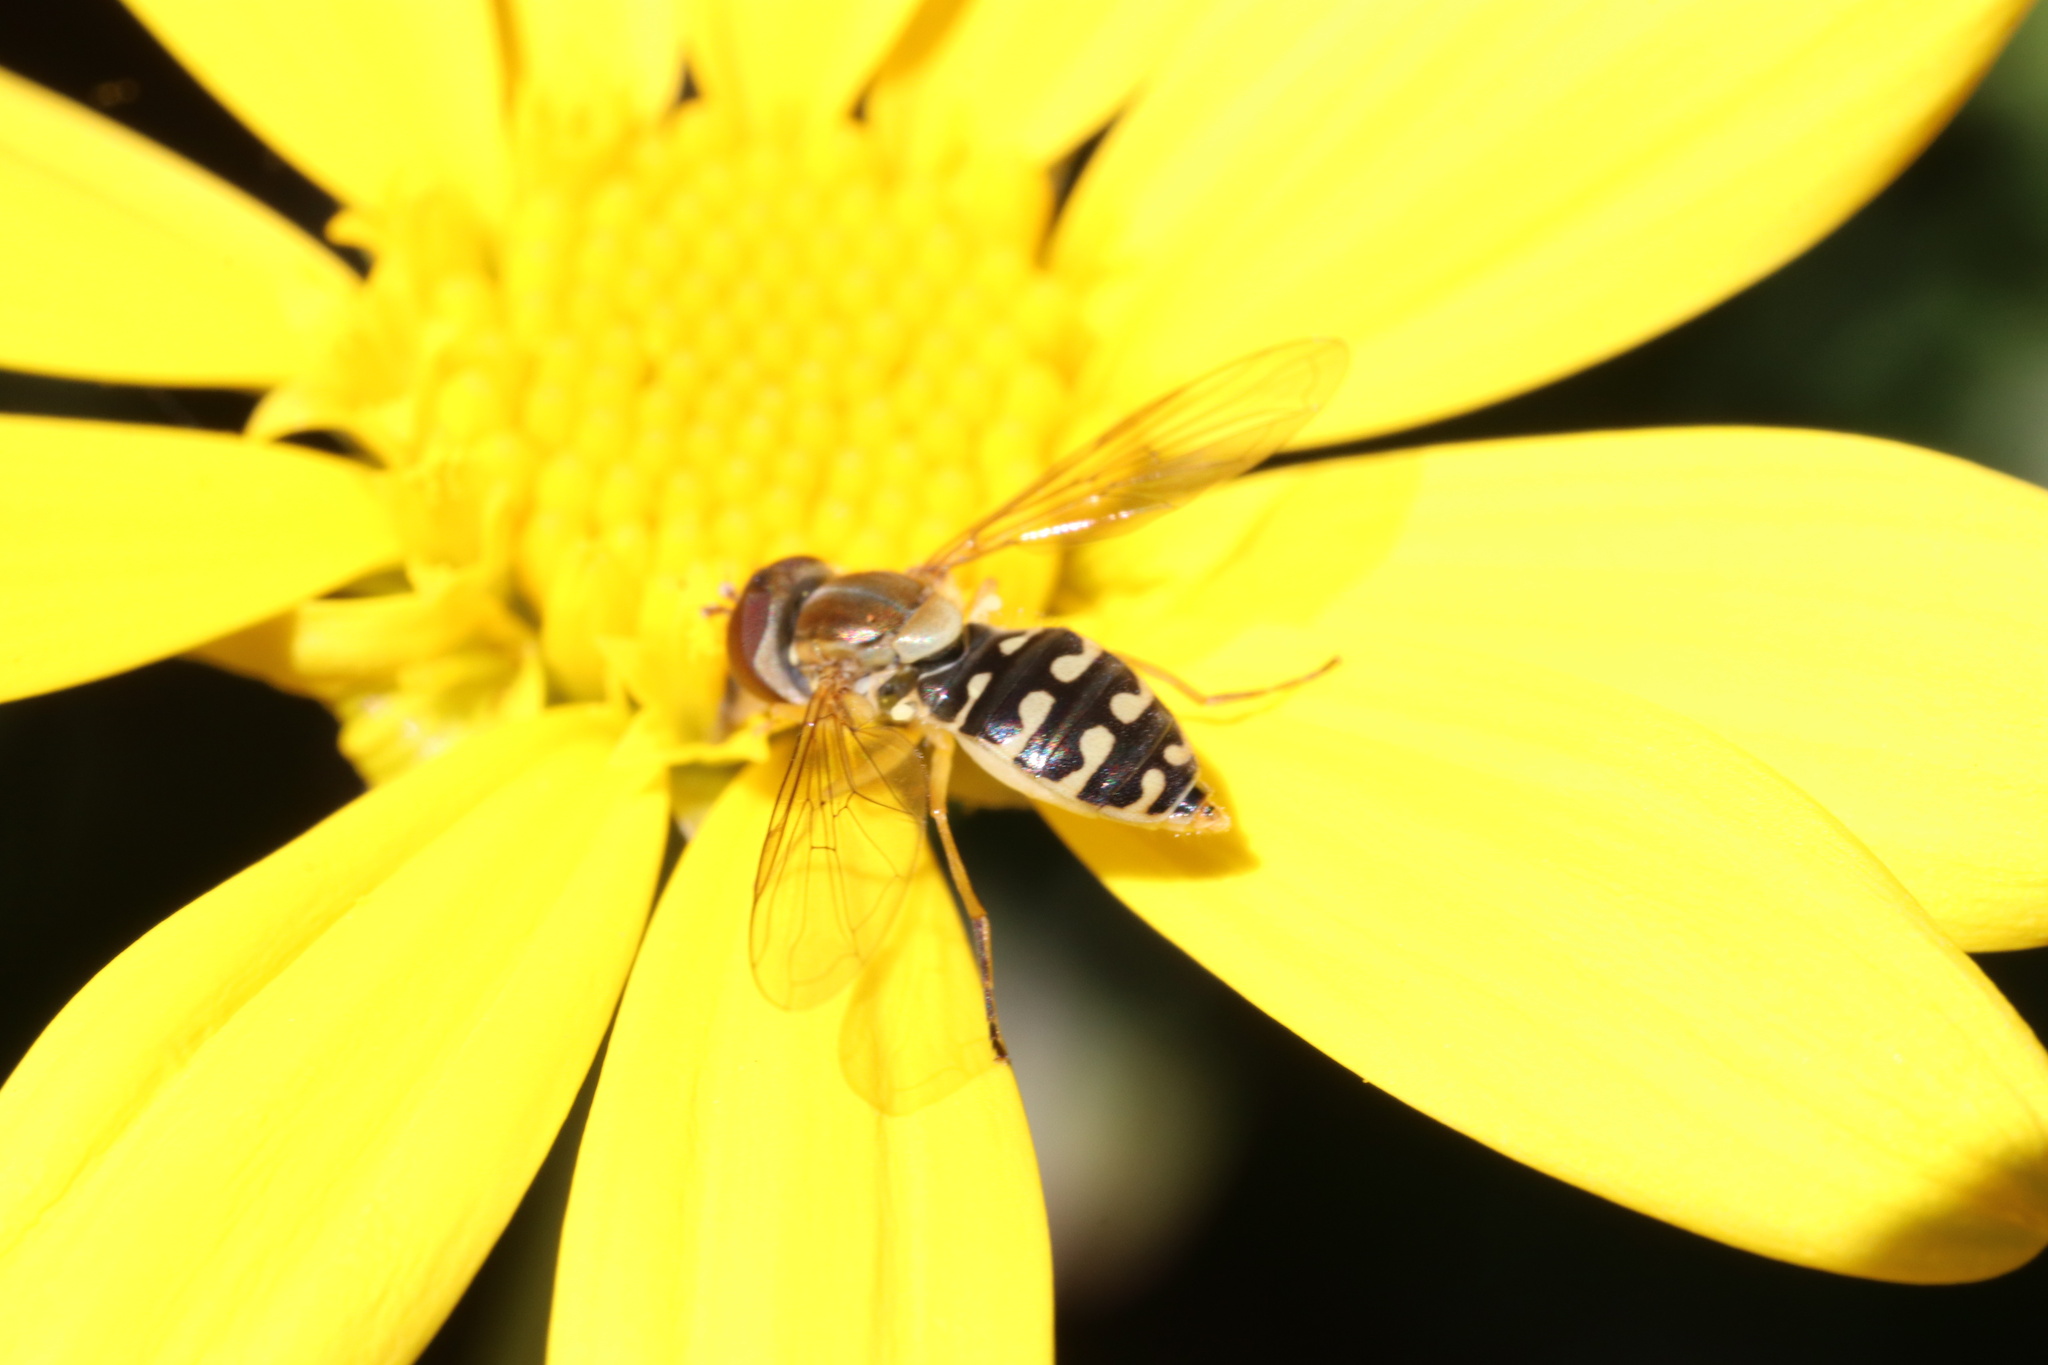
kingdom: Animalia
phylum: Arthropoda
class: Insecta
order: Diptera
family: Syrphidae
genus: Toxomerus
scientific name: Toxomerus vertebratus
